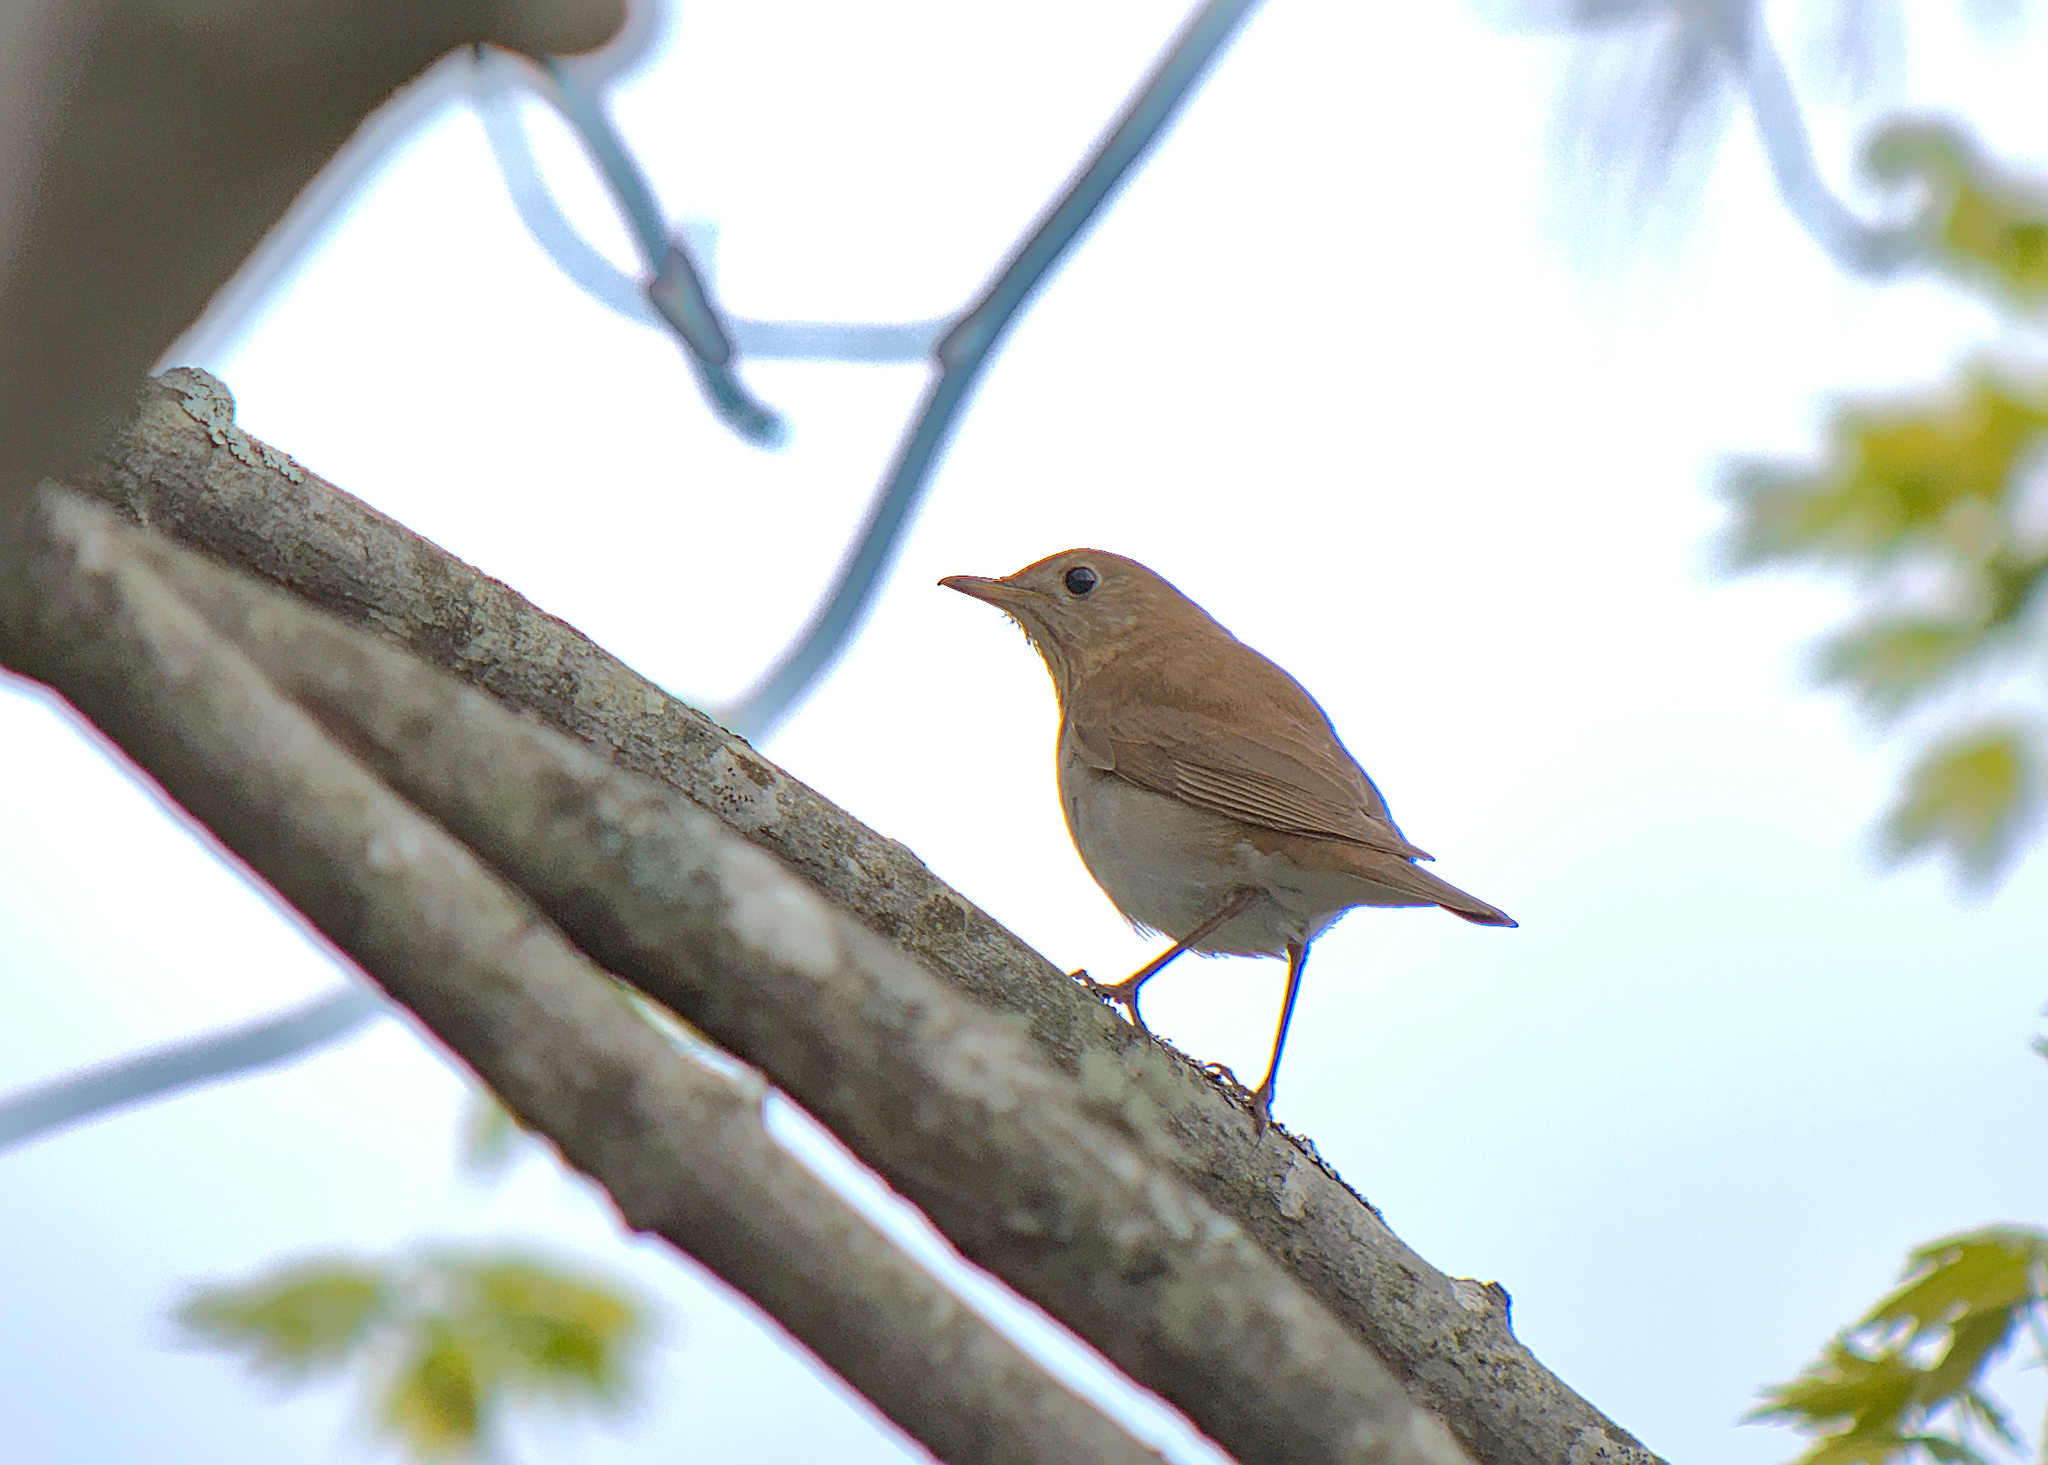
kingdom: Animalia
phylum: Chordata
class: Aves
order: Passeriformes
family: Turdidae
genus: Catharus
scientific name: Catharus fuscescens
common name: Veery
